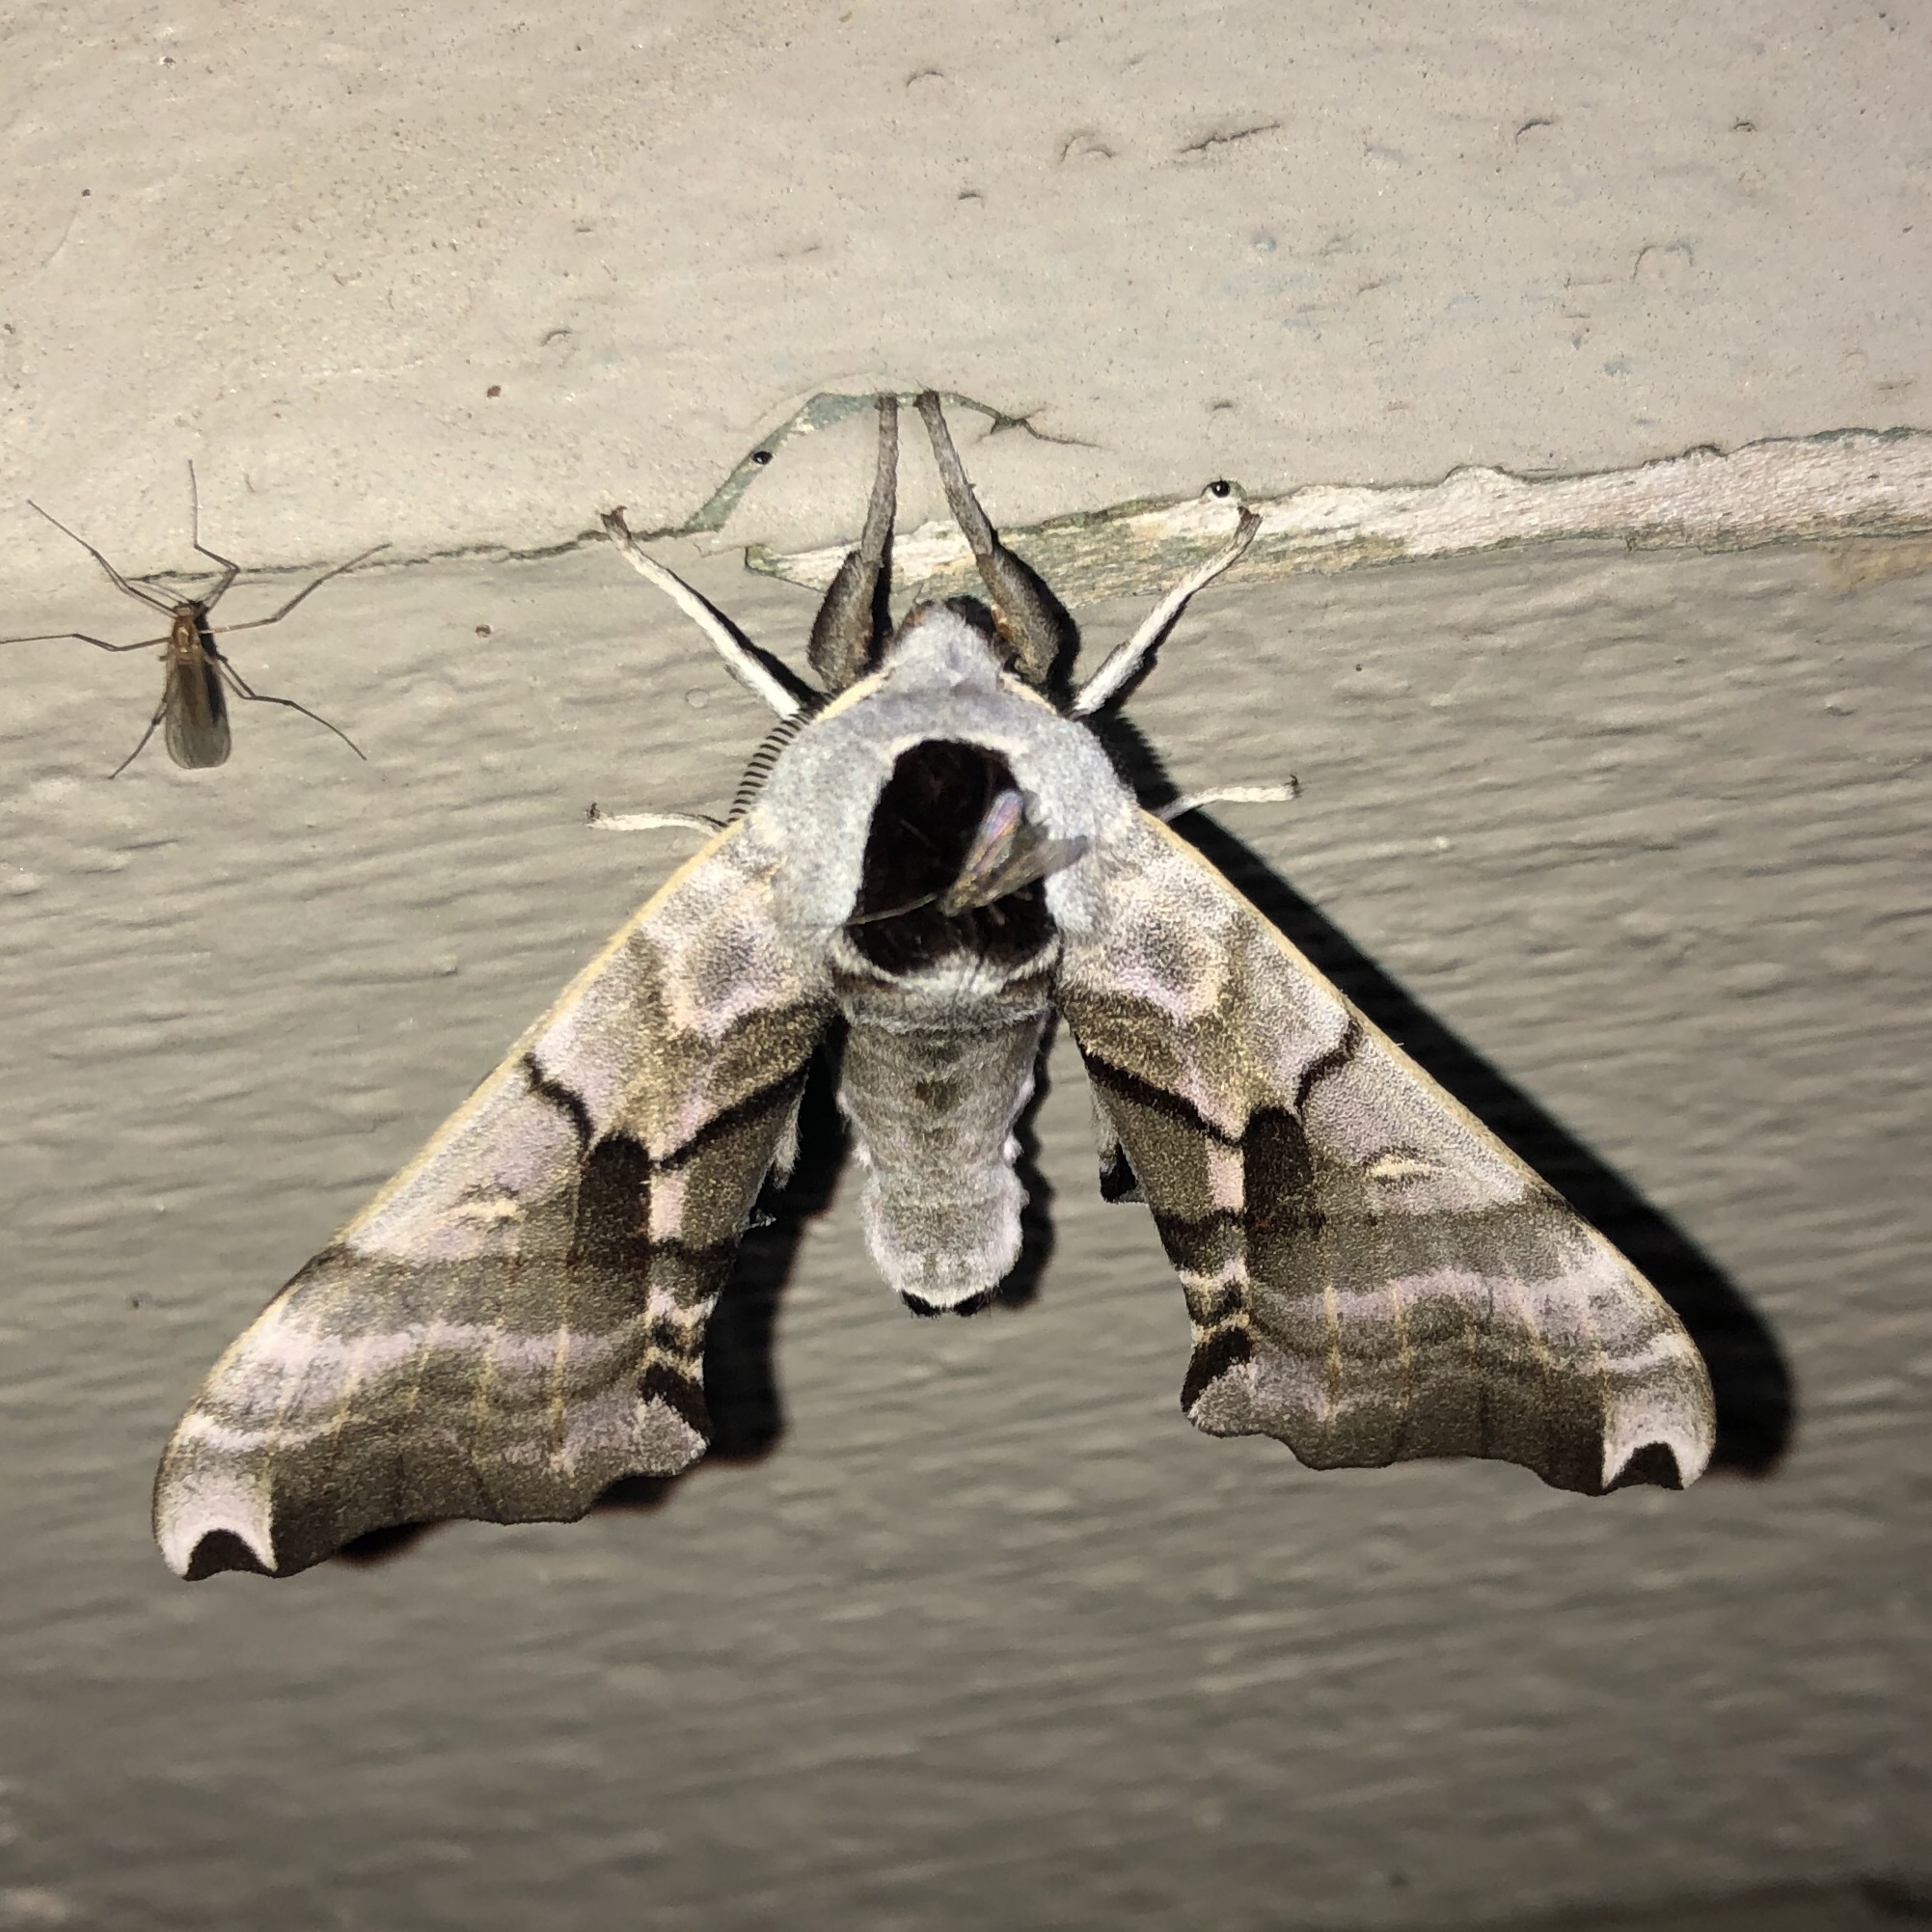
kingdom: Animalia
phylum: Arthropoda
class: Insecta
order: Lepidoptera
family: Sphingidae
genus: Smerinthus
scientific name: Smerinthus jamaicensis
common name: Twin spotted sphinx
